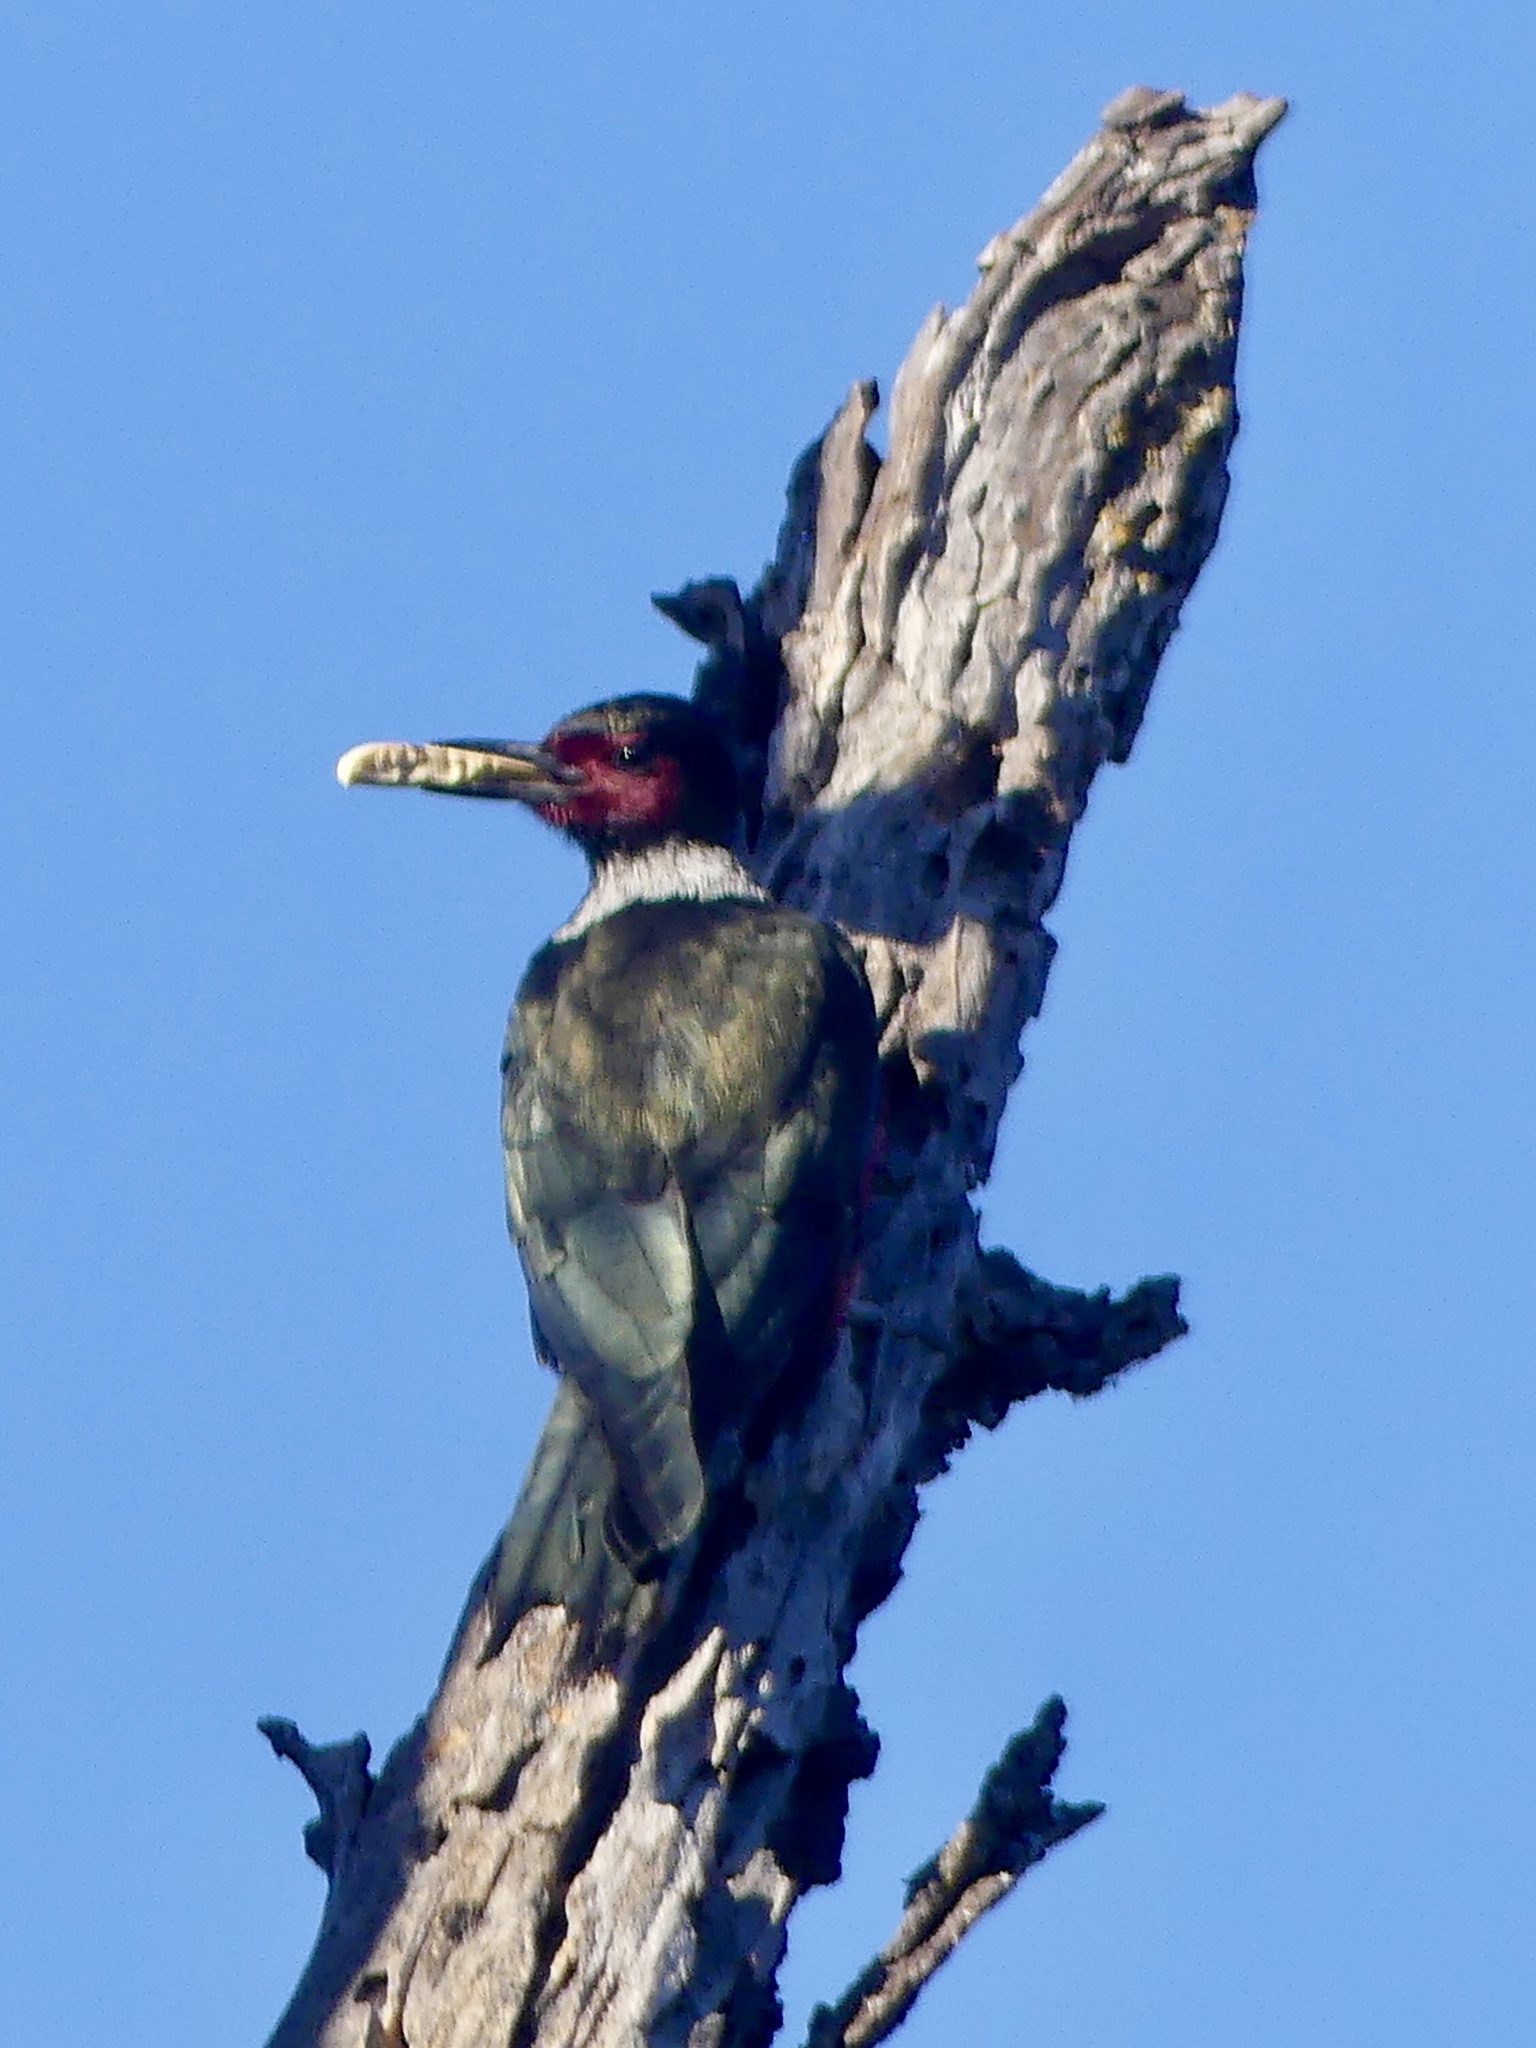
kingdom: Animalia
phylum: Chordata
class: Aves
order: Piciformes
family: Picidae
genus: Melanerpes
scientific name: Melanerpes lewis
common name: Lewis's woodpecker
